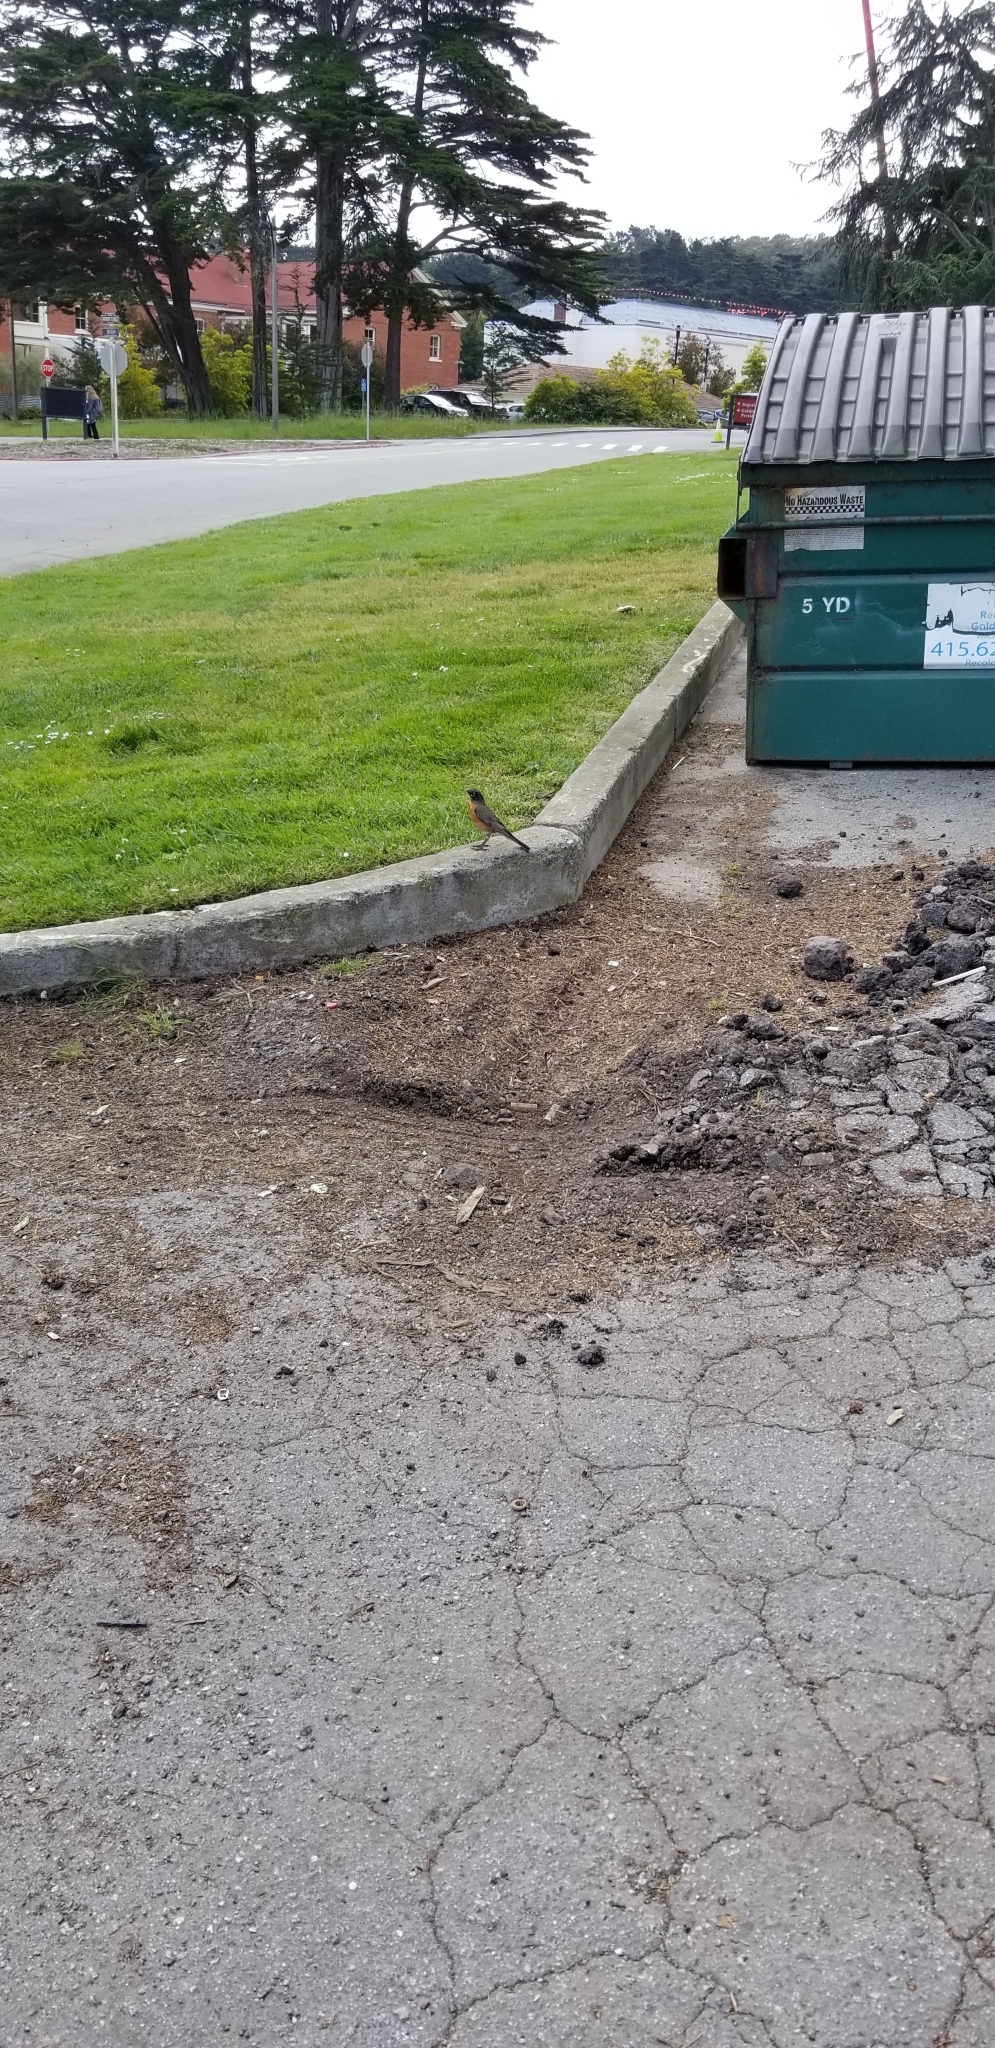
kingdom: Animalia
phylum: Chordata
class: Aves
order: Passeriformes
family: Turdidae
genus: Turdus
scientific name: Turdus migratorius
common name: American robin
